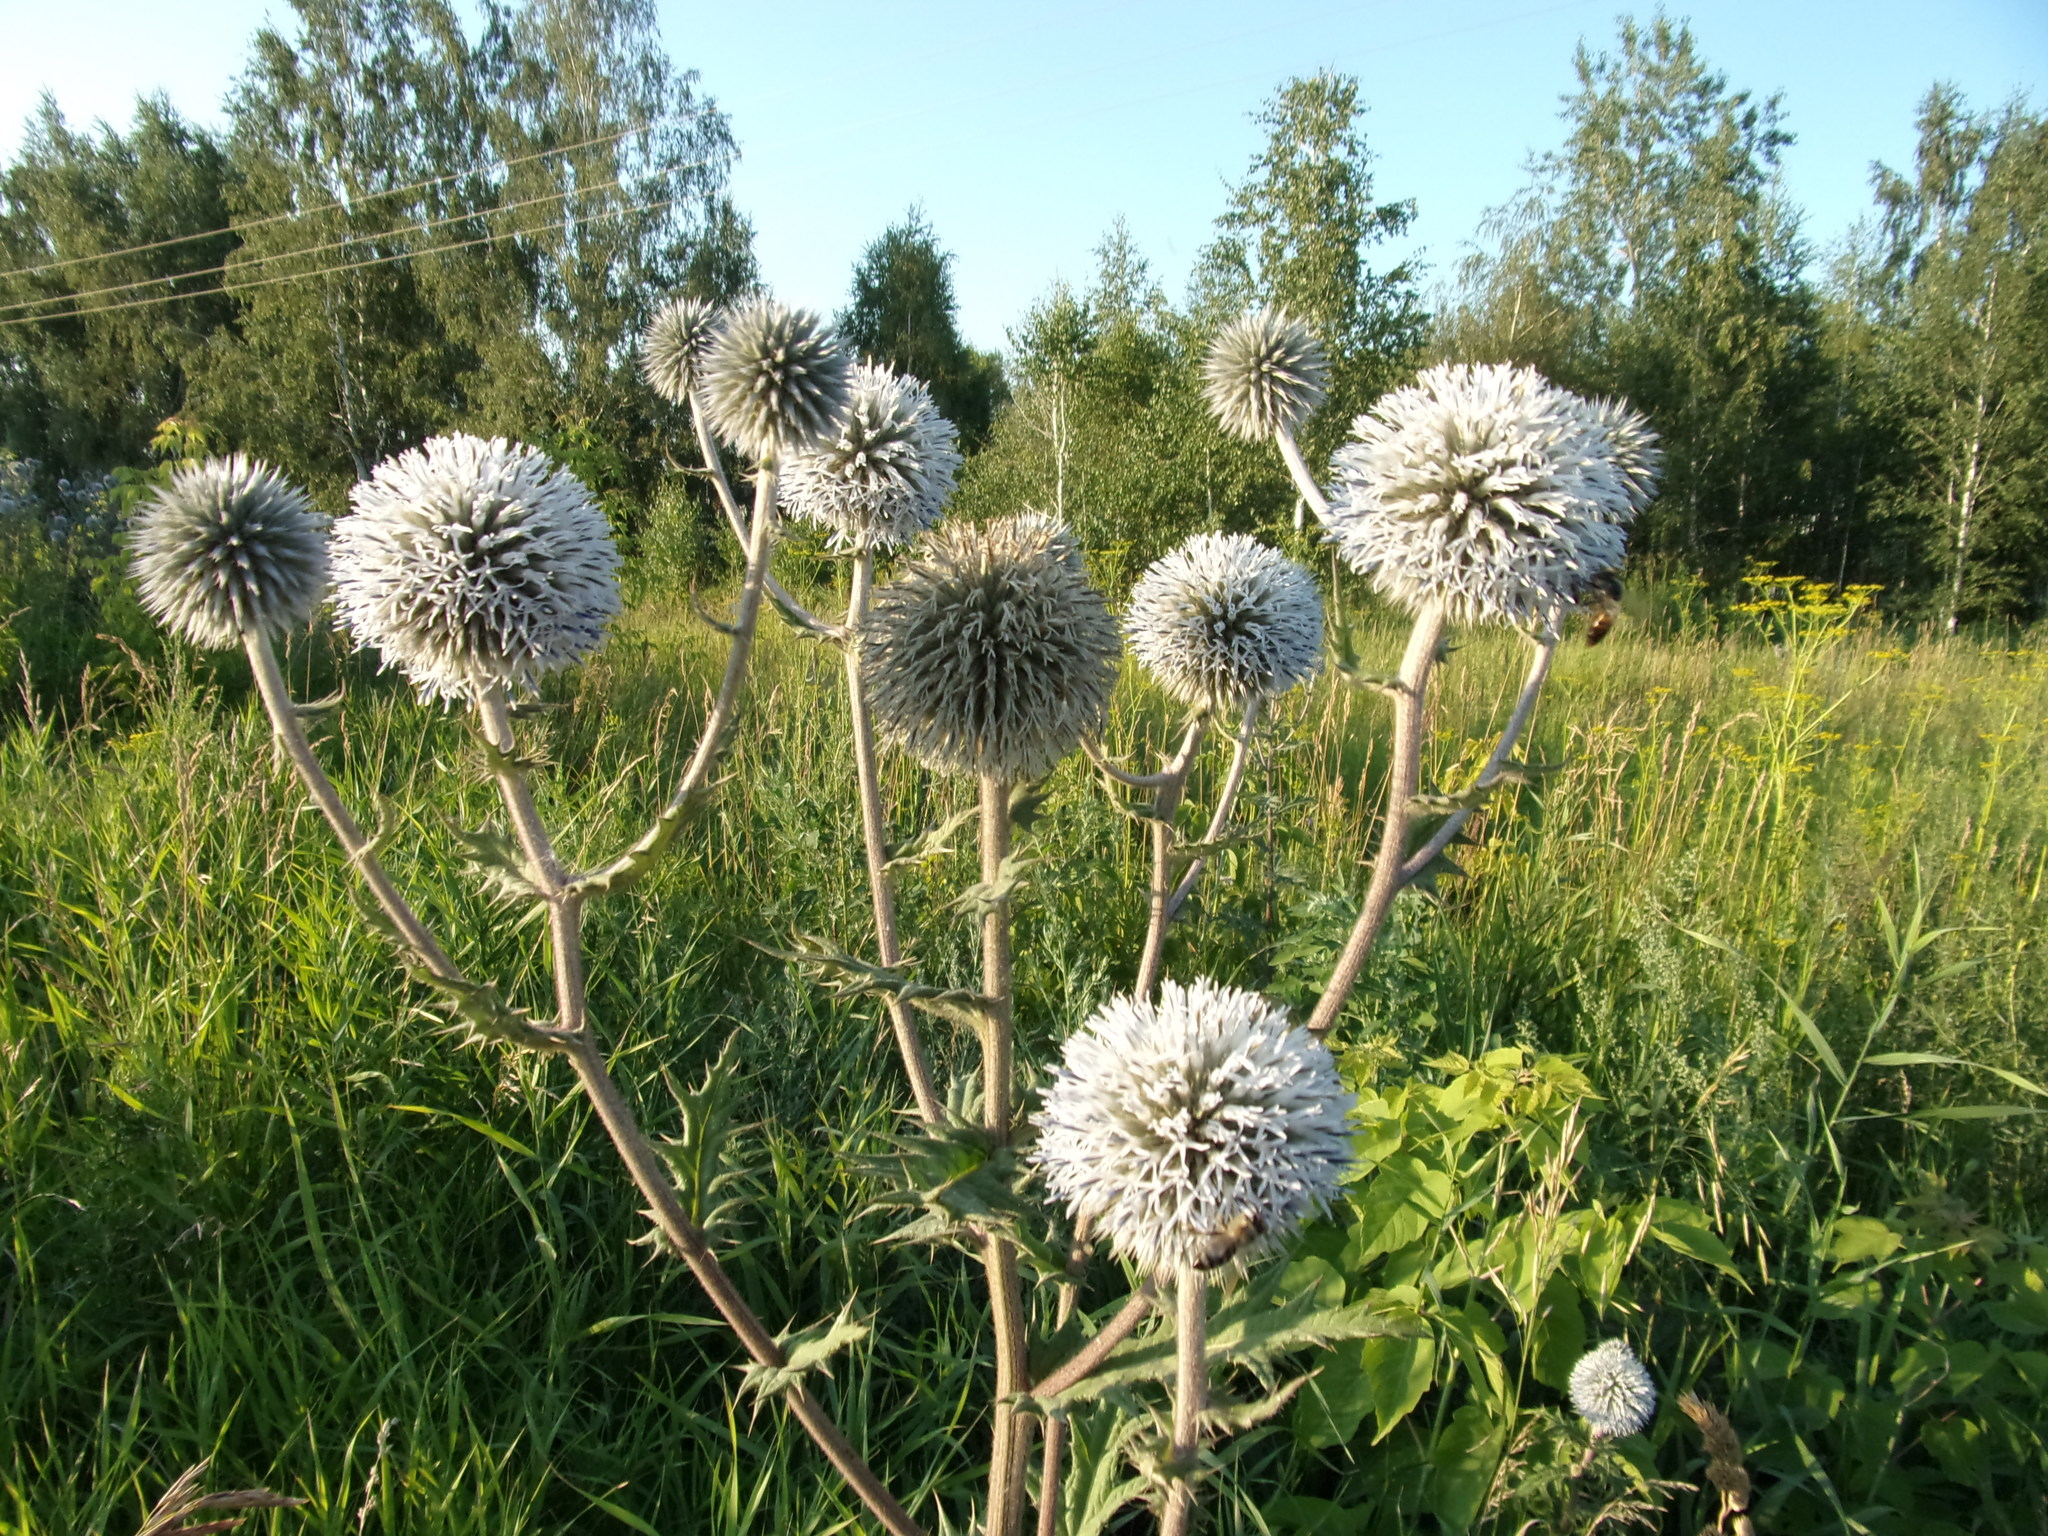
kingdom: Plantae
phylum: Tracheophyta
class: Magnoliopsida
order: Asterales
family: Asteraceae
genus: Echinops
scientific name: Echinops sphaerocephalus
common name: Glandular globe-thistle
